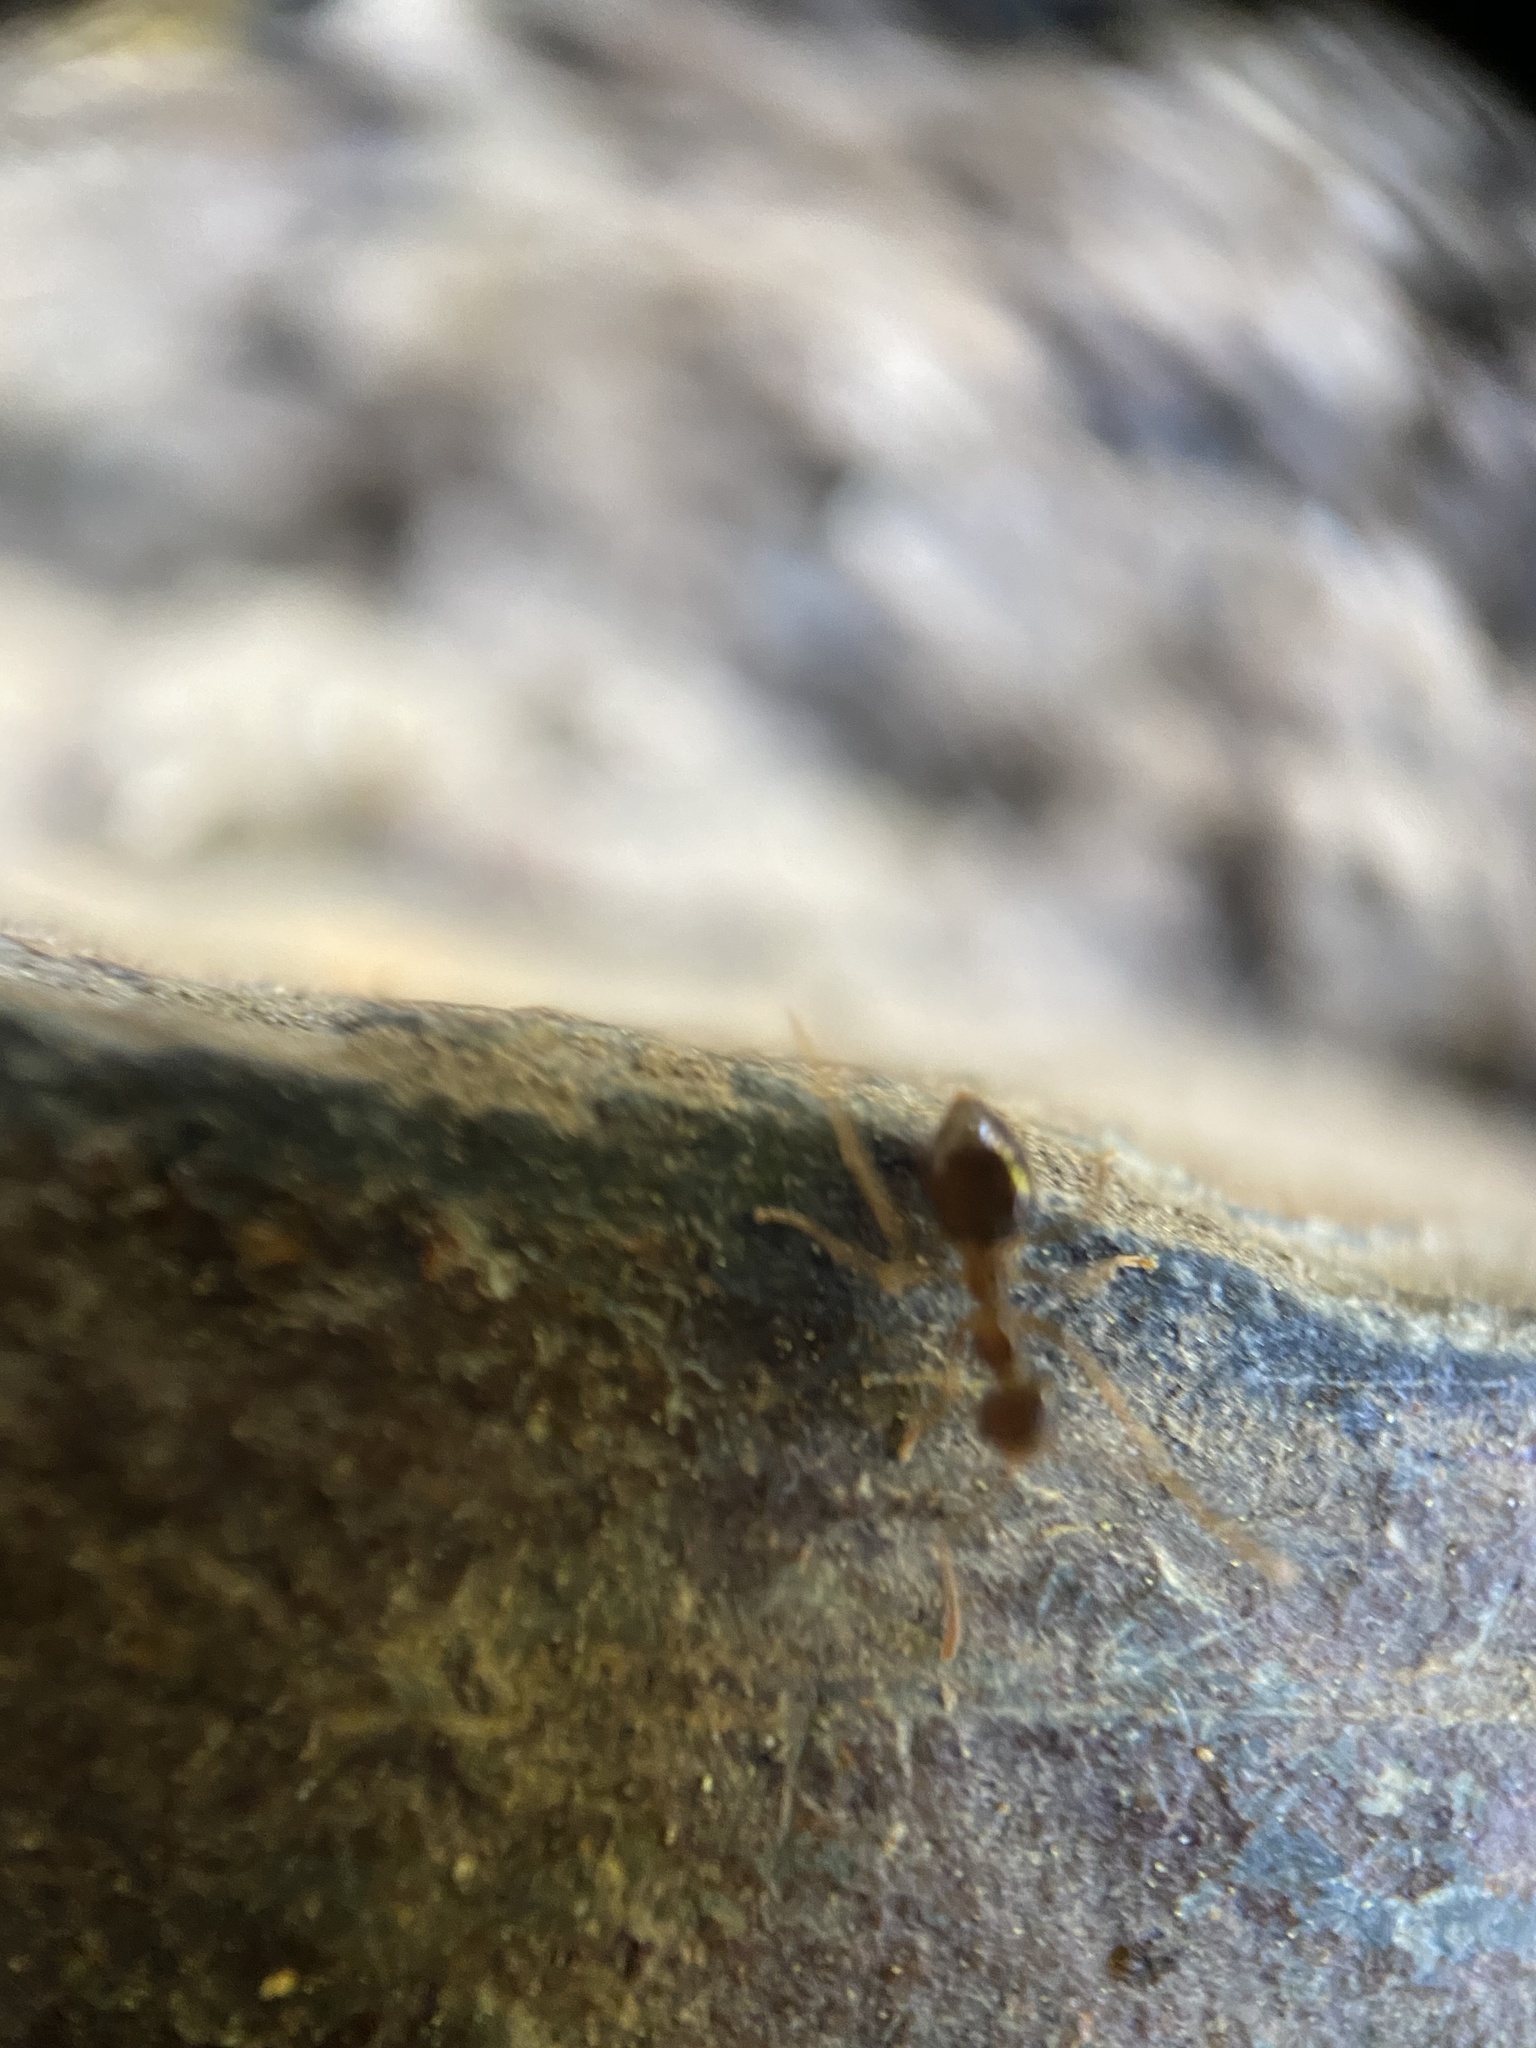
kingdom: Animalia
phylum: Arthropoda
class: Insecta
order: Hymenoptera
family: Formicidae
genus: Prenolepis
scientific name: Prenolepis imparis
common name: Small honey ant
